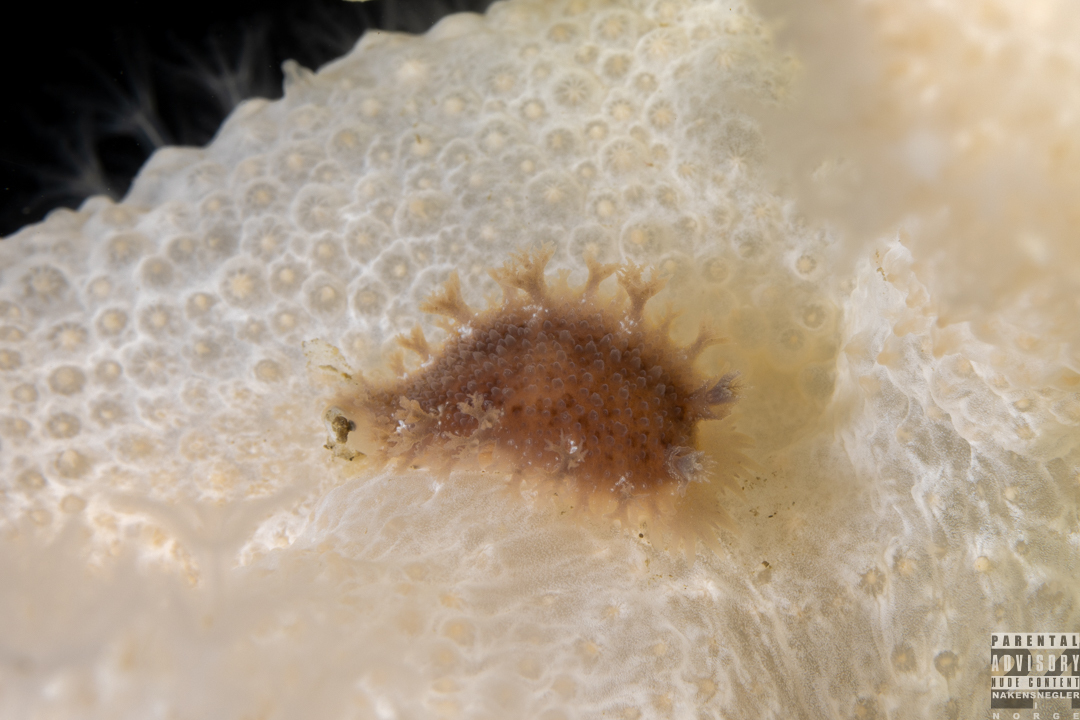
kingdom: Animalia
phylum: Mollusca
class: Gastropoda
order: Nudibranchia
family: Tritoniidae
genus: Tritonia
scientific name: Tritonia hombergii
